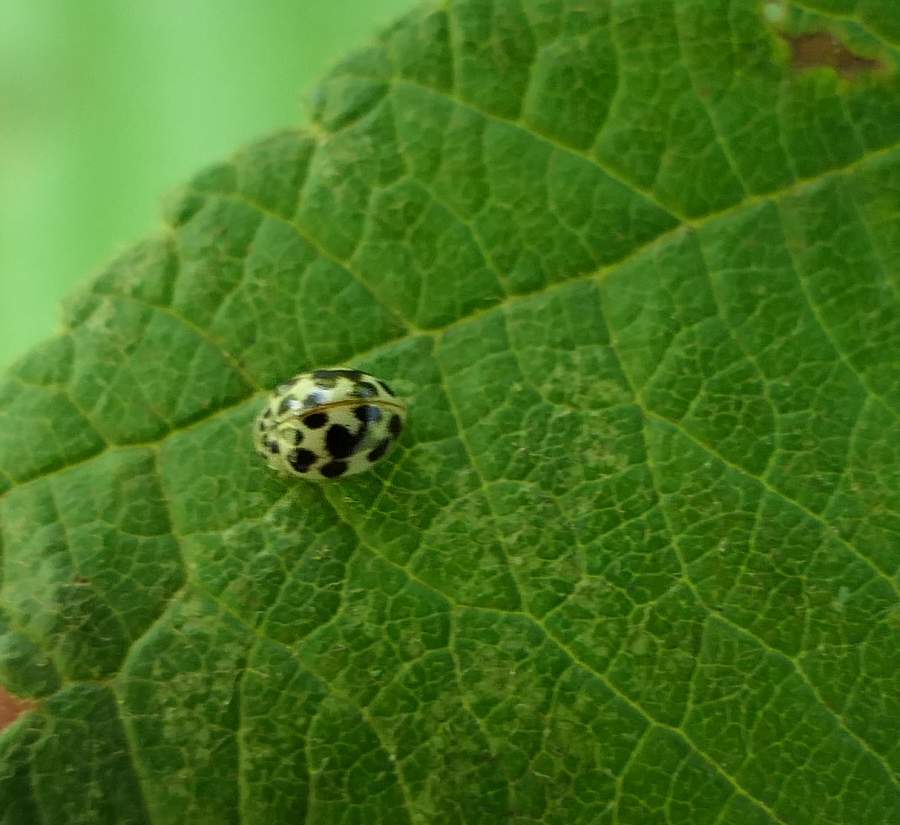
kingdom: Animalia
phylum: Arthropoda
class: Insecta
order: Coleoptera
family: Coccinellidae
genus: Psyllobora
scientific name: Psyllobora vigintimaculata
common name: Ladybird beetle
